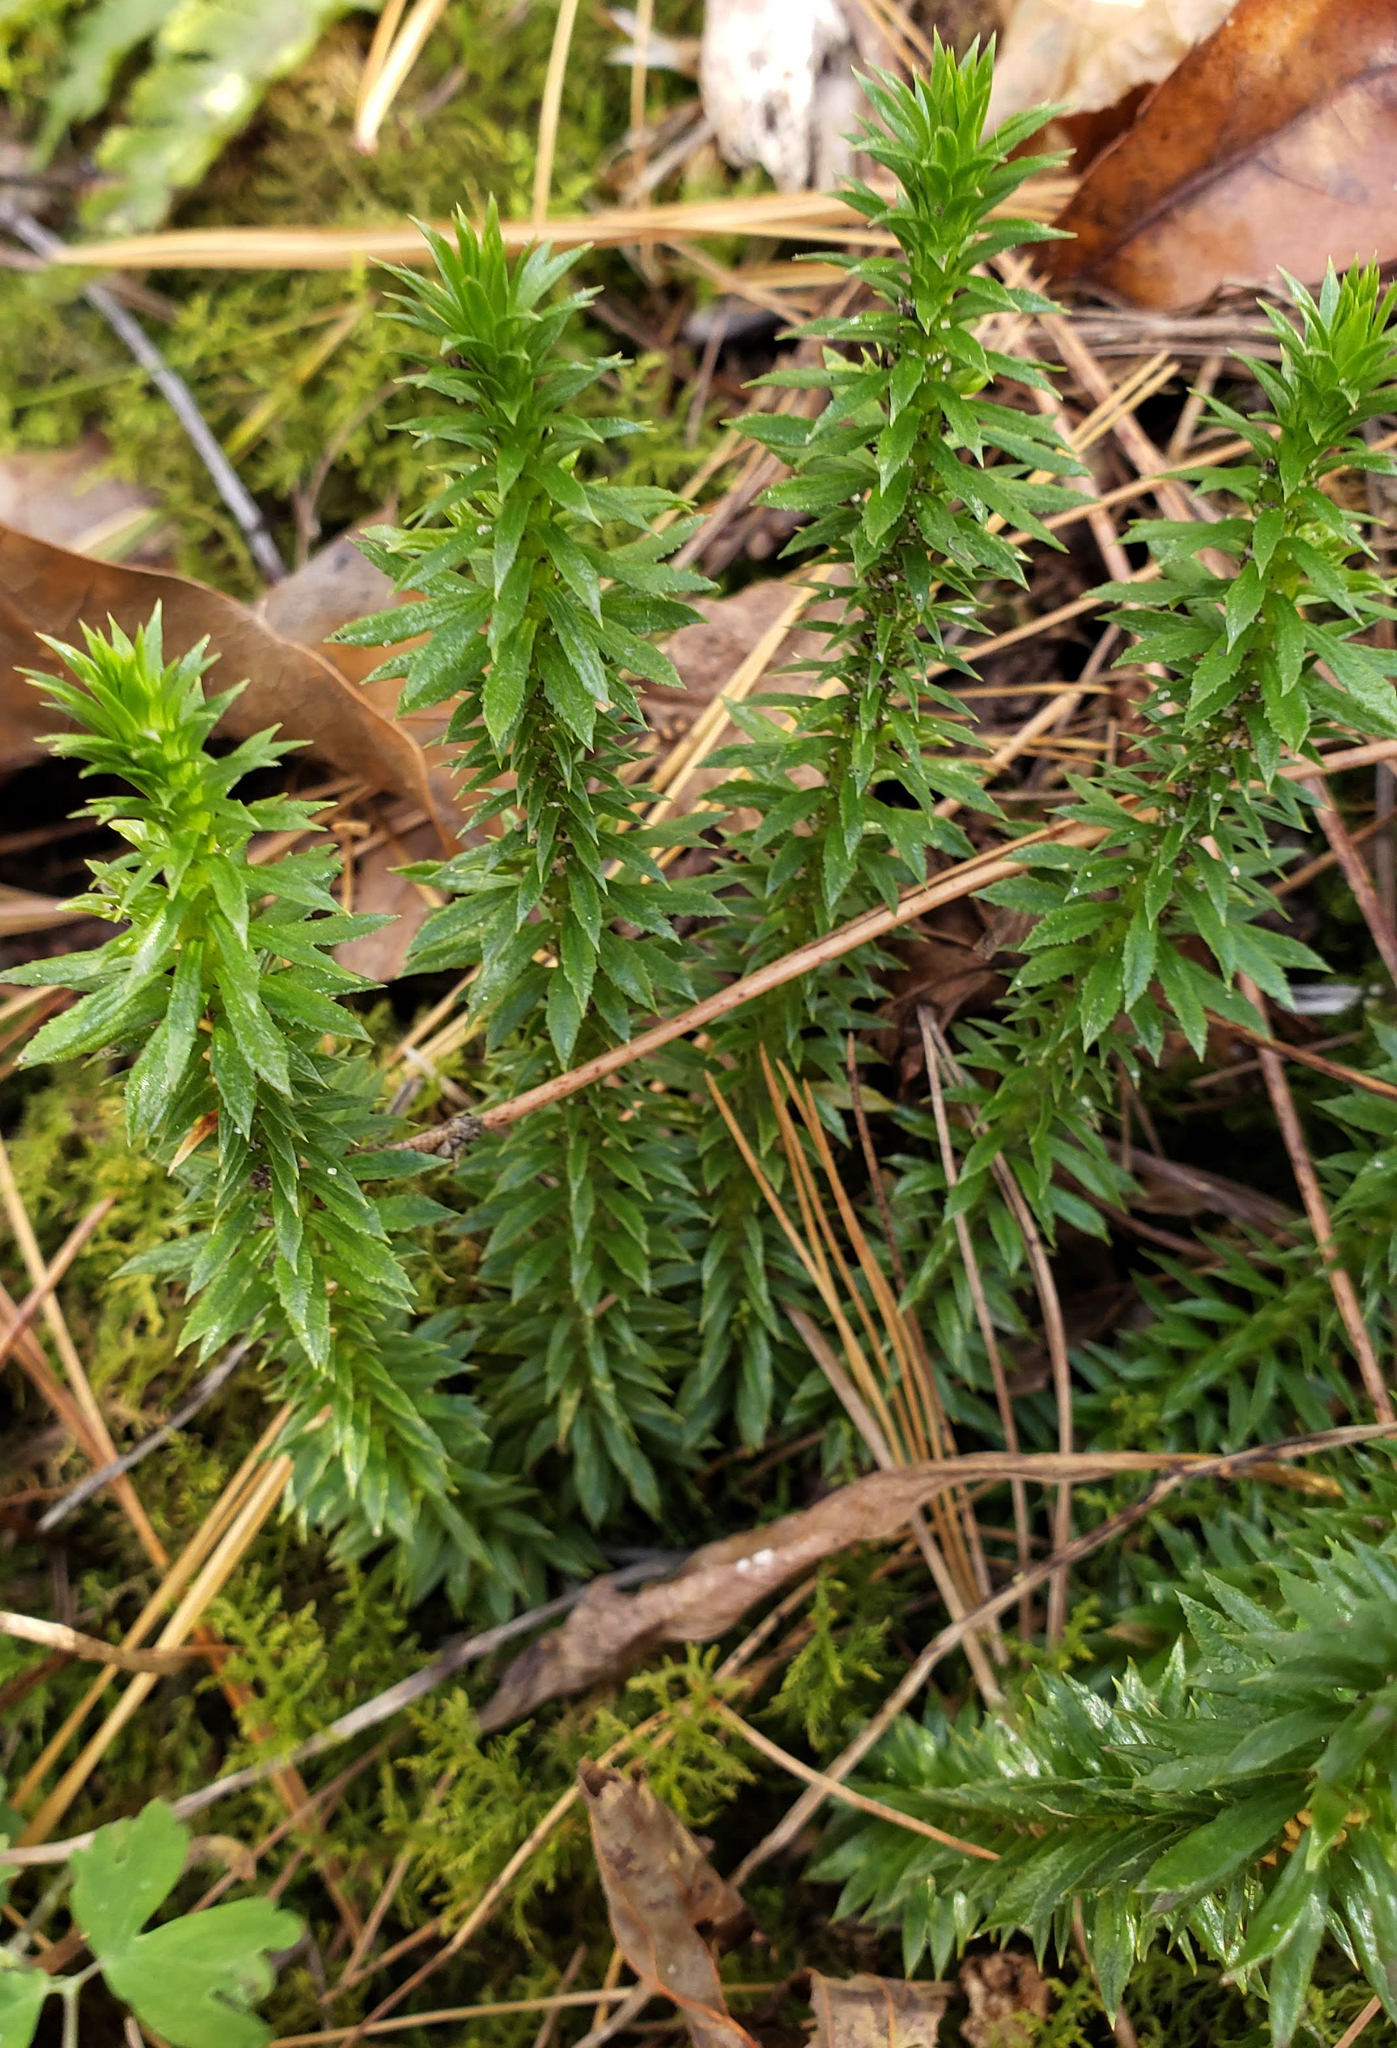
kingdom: Plantae
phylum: Tracheophyta
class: Lycopodiopsida
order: Lycopodiales
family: Lycopodiaceae
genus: Huperzia
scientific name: Huperzia lucidula
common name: Shining clubmoss
